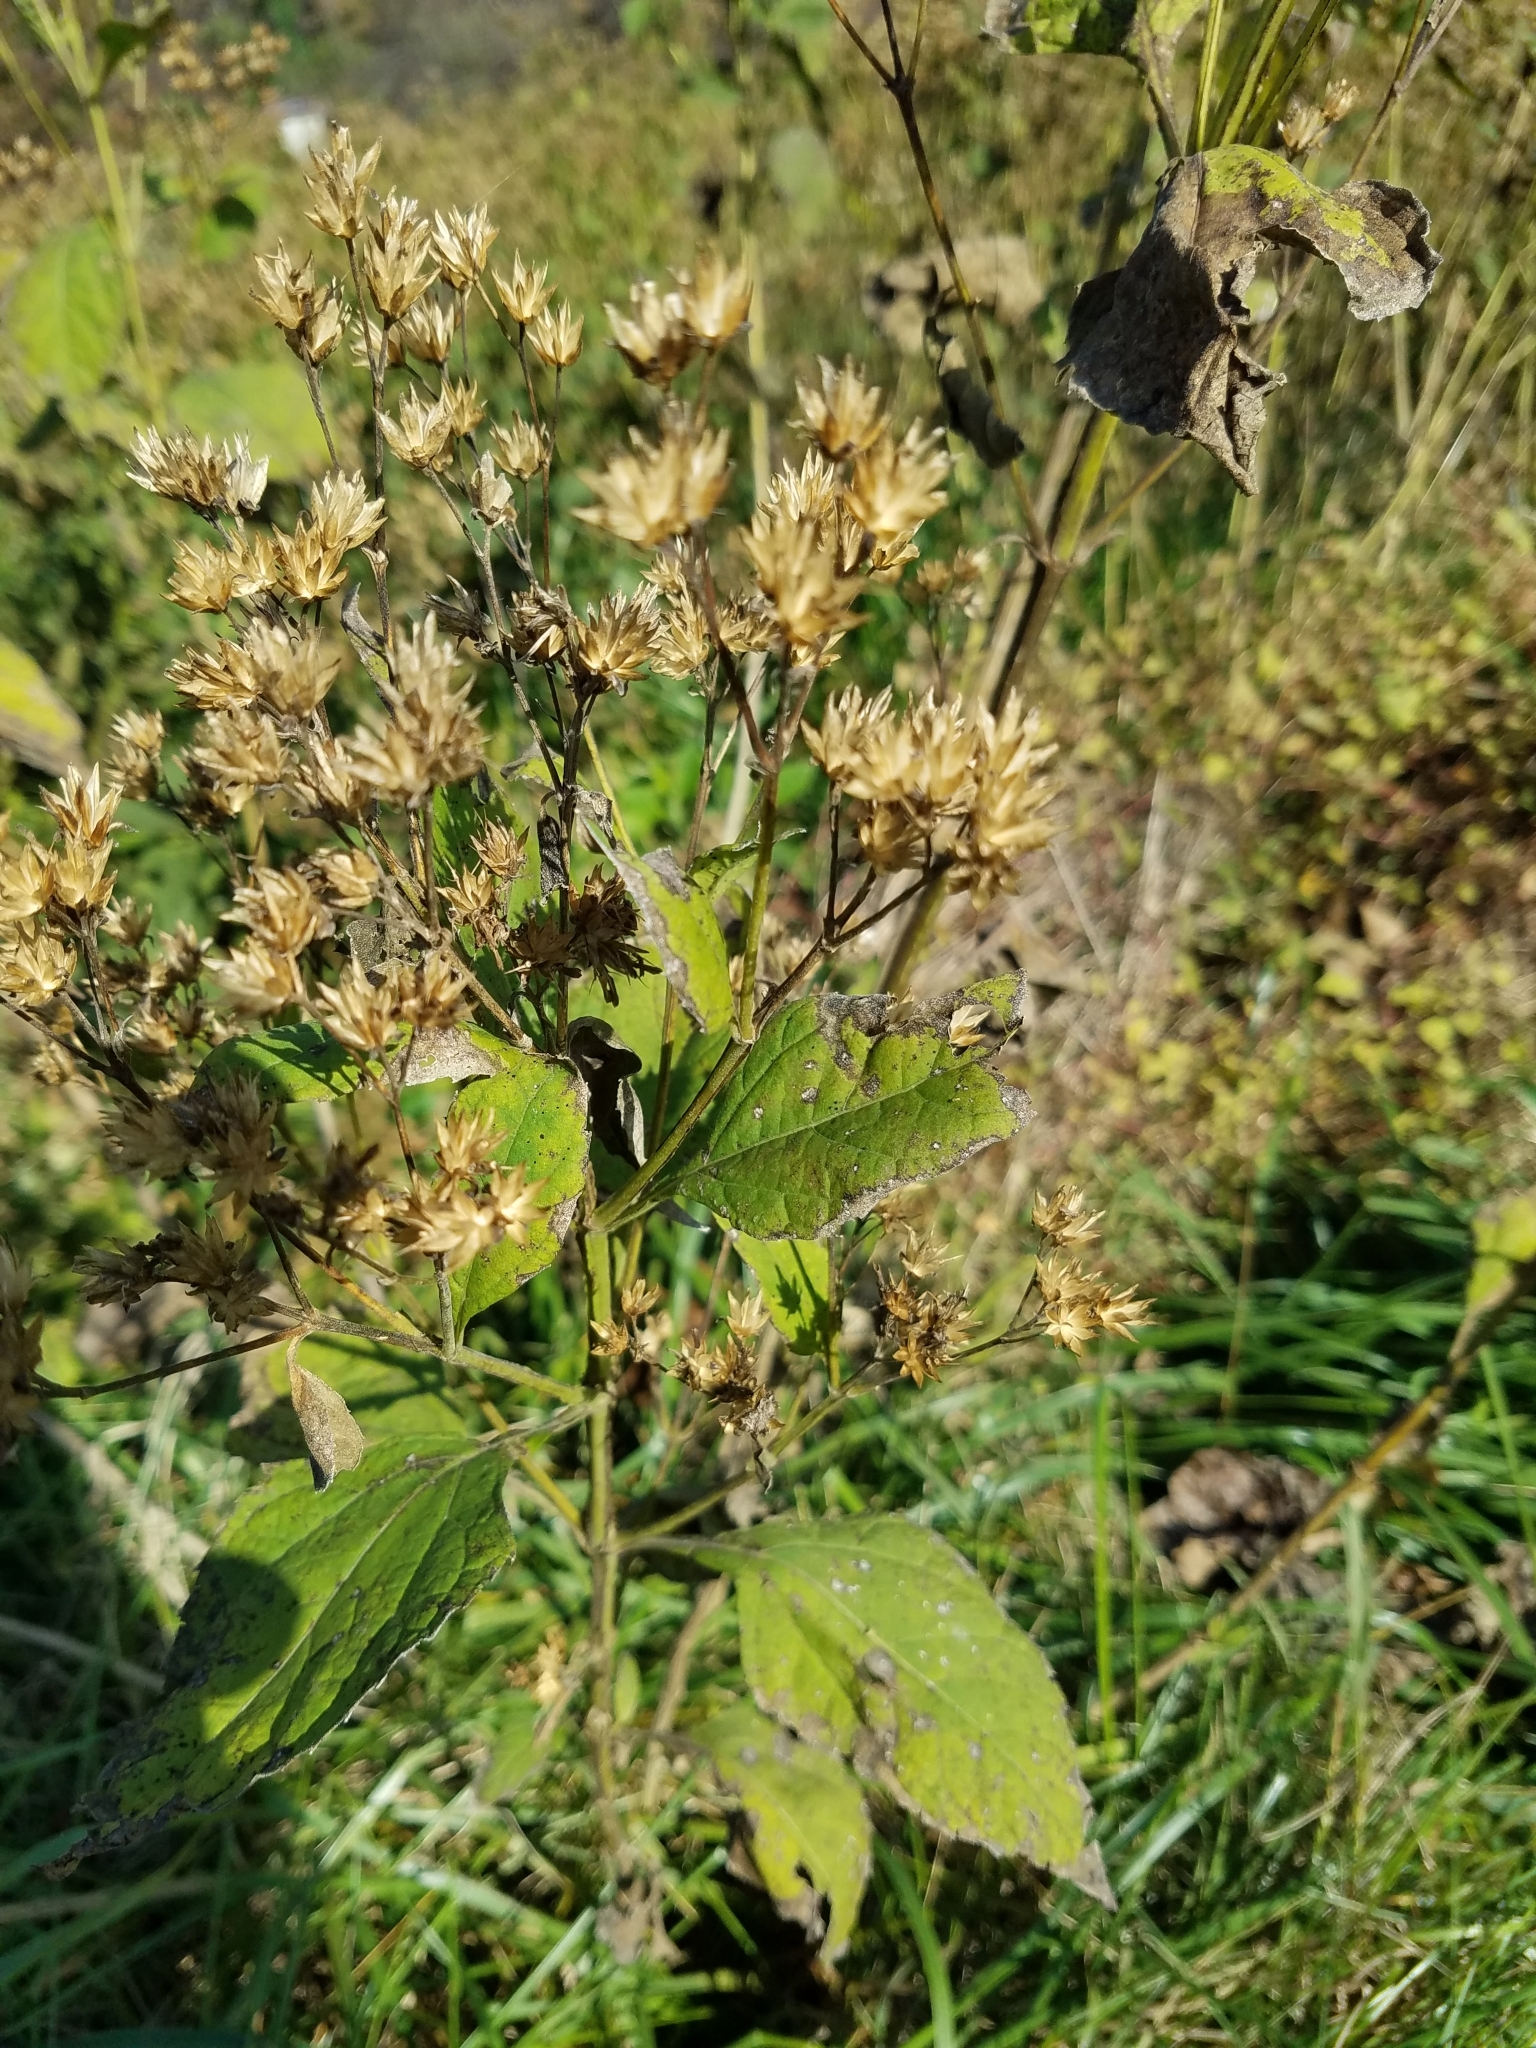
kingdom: Plantae
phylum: Tracheophyta
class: Magnoliopsida
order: Asterales
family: Asteraceae
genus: Verbesina
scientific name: Verbesina occidentalis
